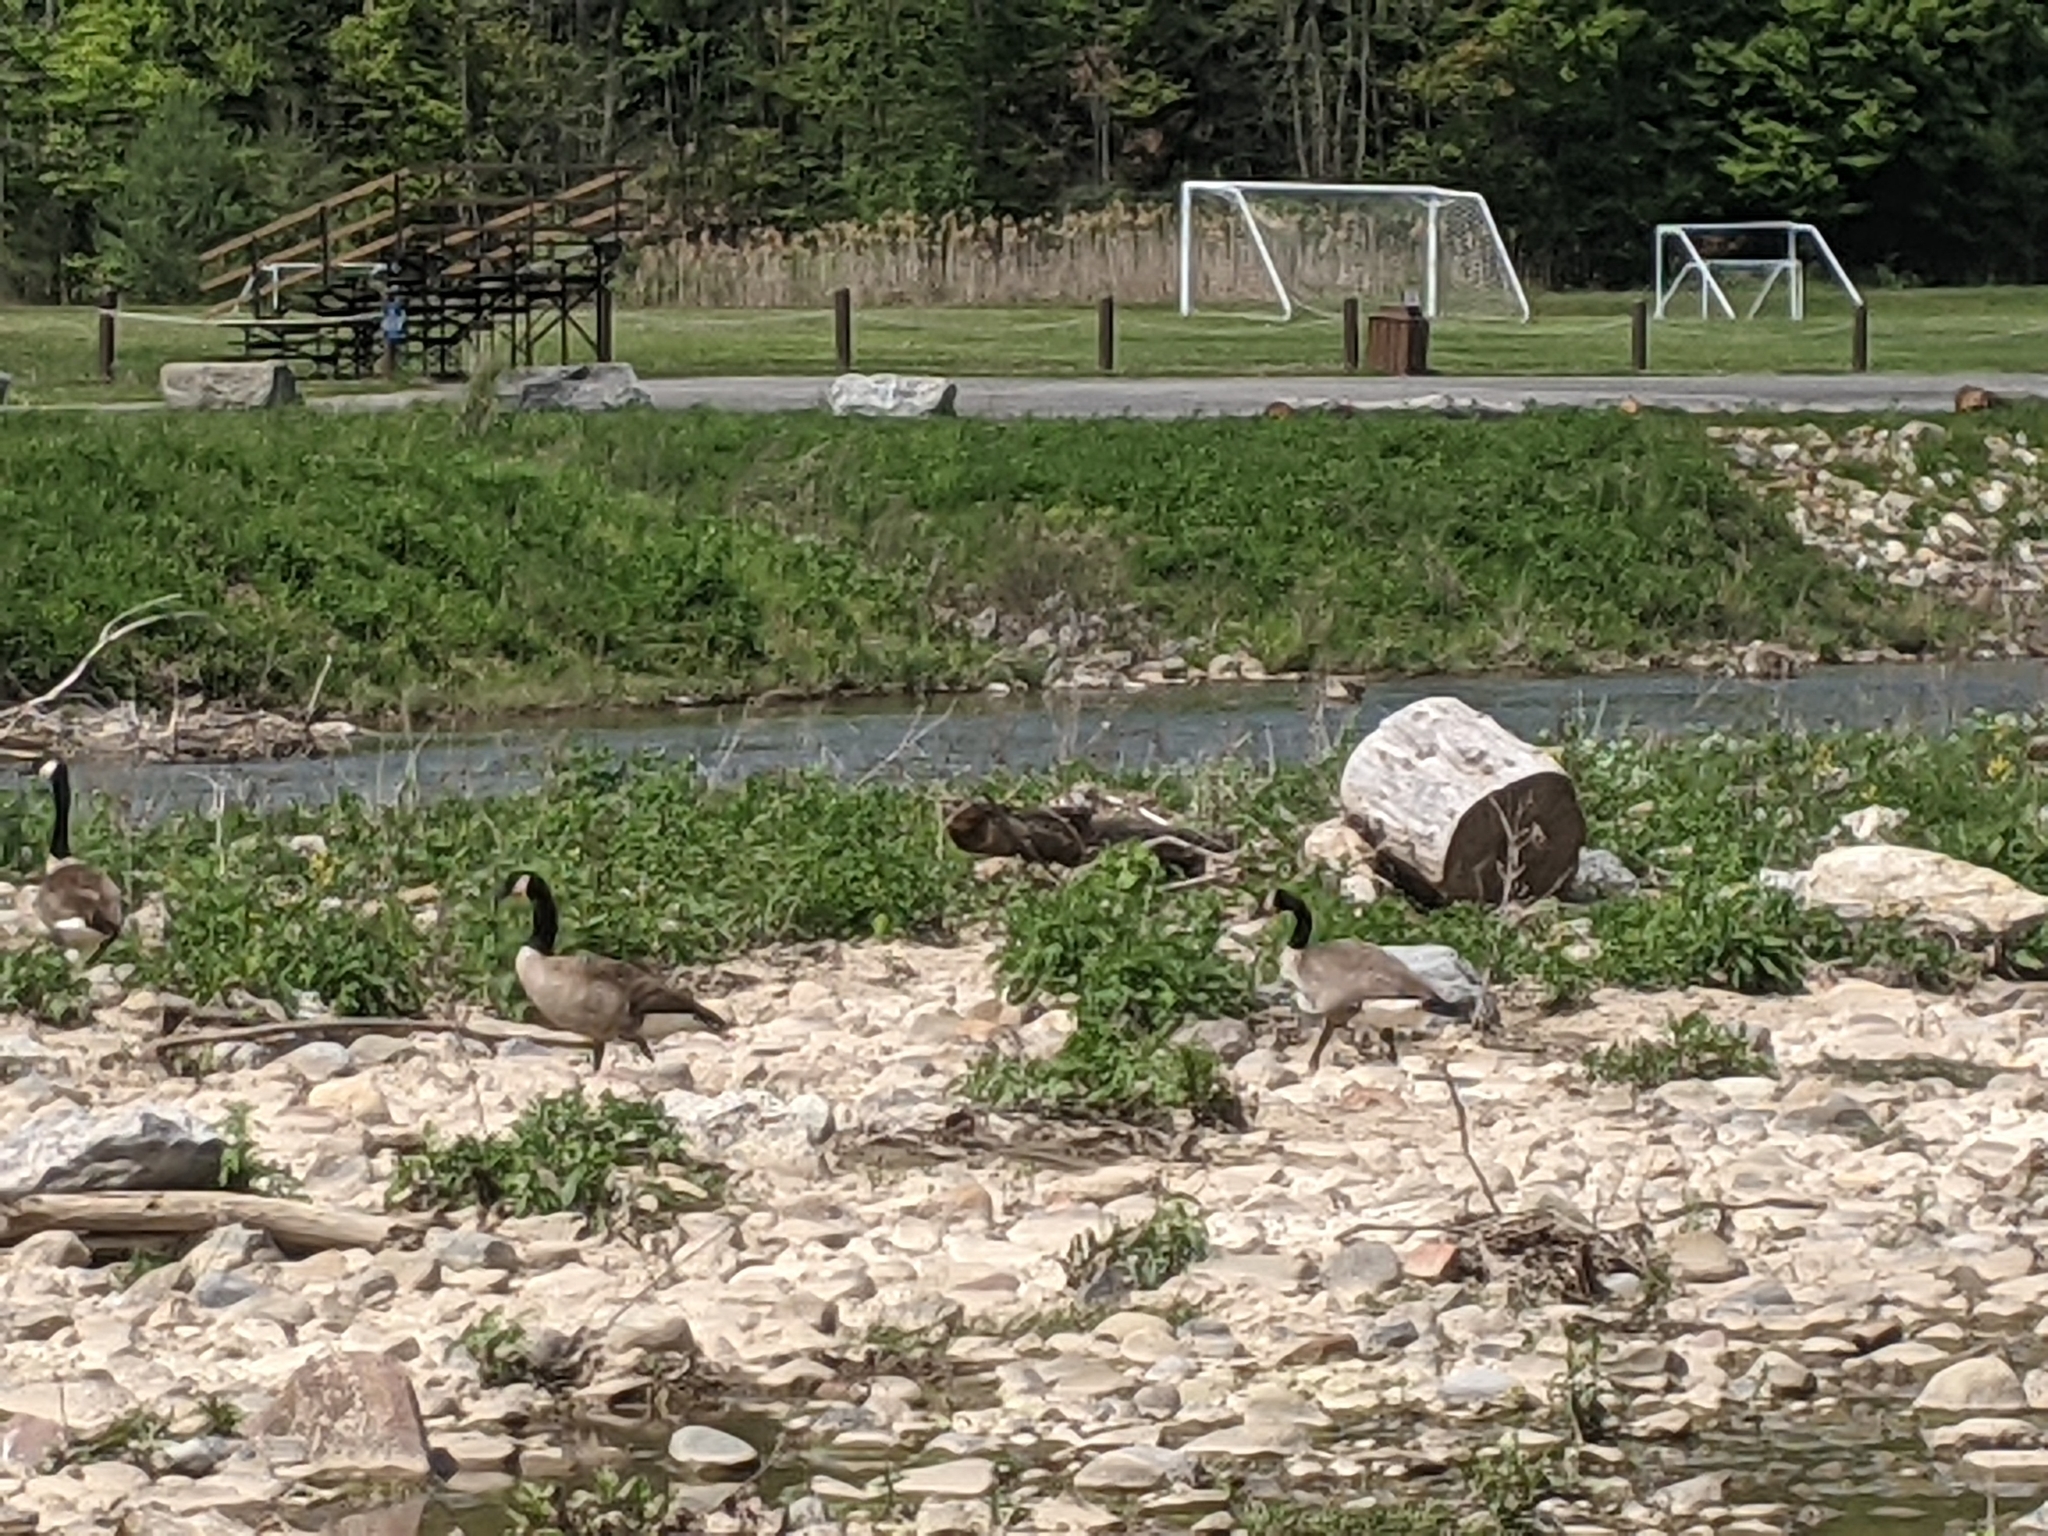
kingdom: Animalia
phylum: Chordata
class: Aves
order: Anseriformes
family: Anatidae
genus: Branta
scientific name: Branta canadensis
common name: Canada goose
